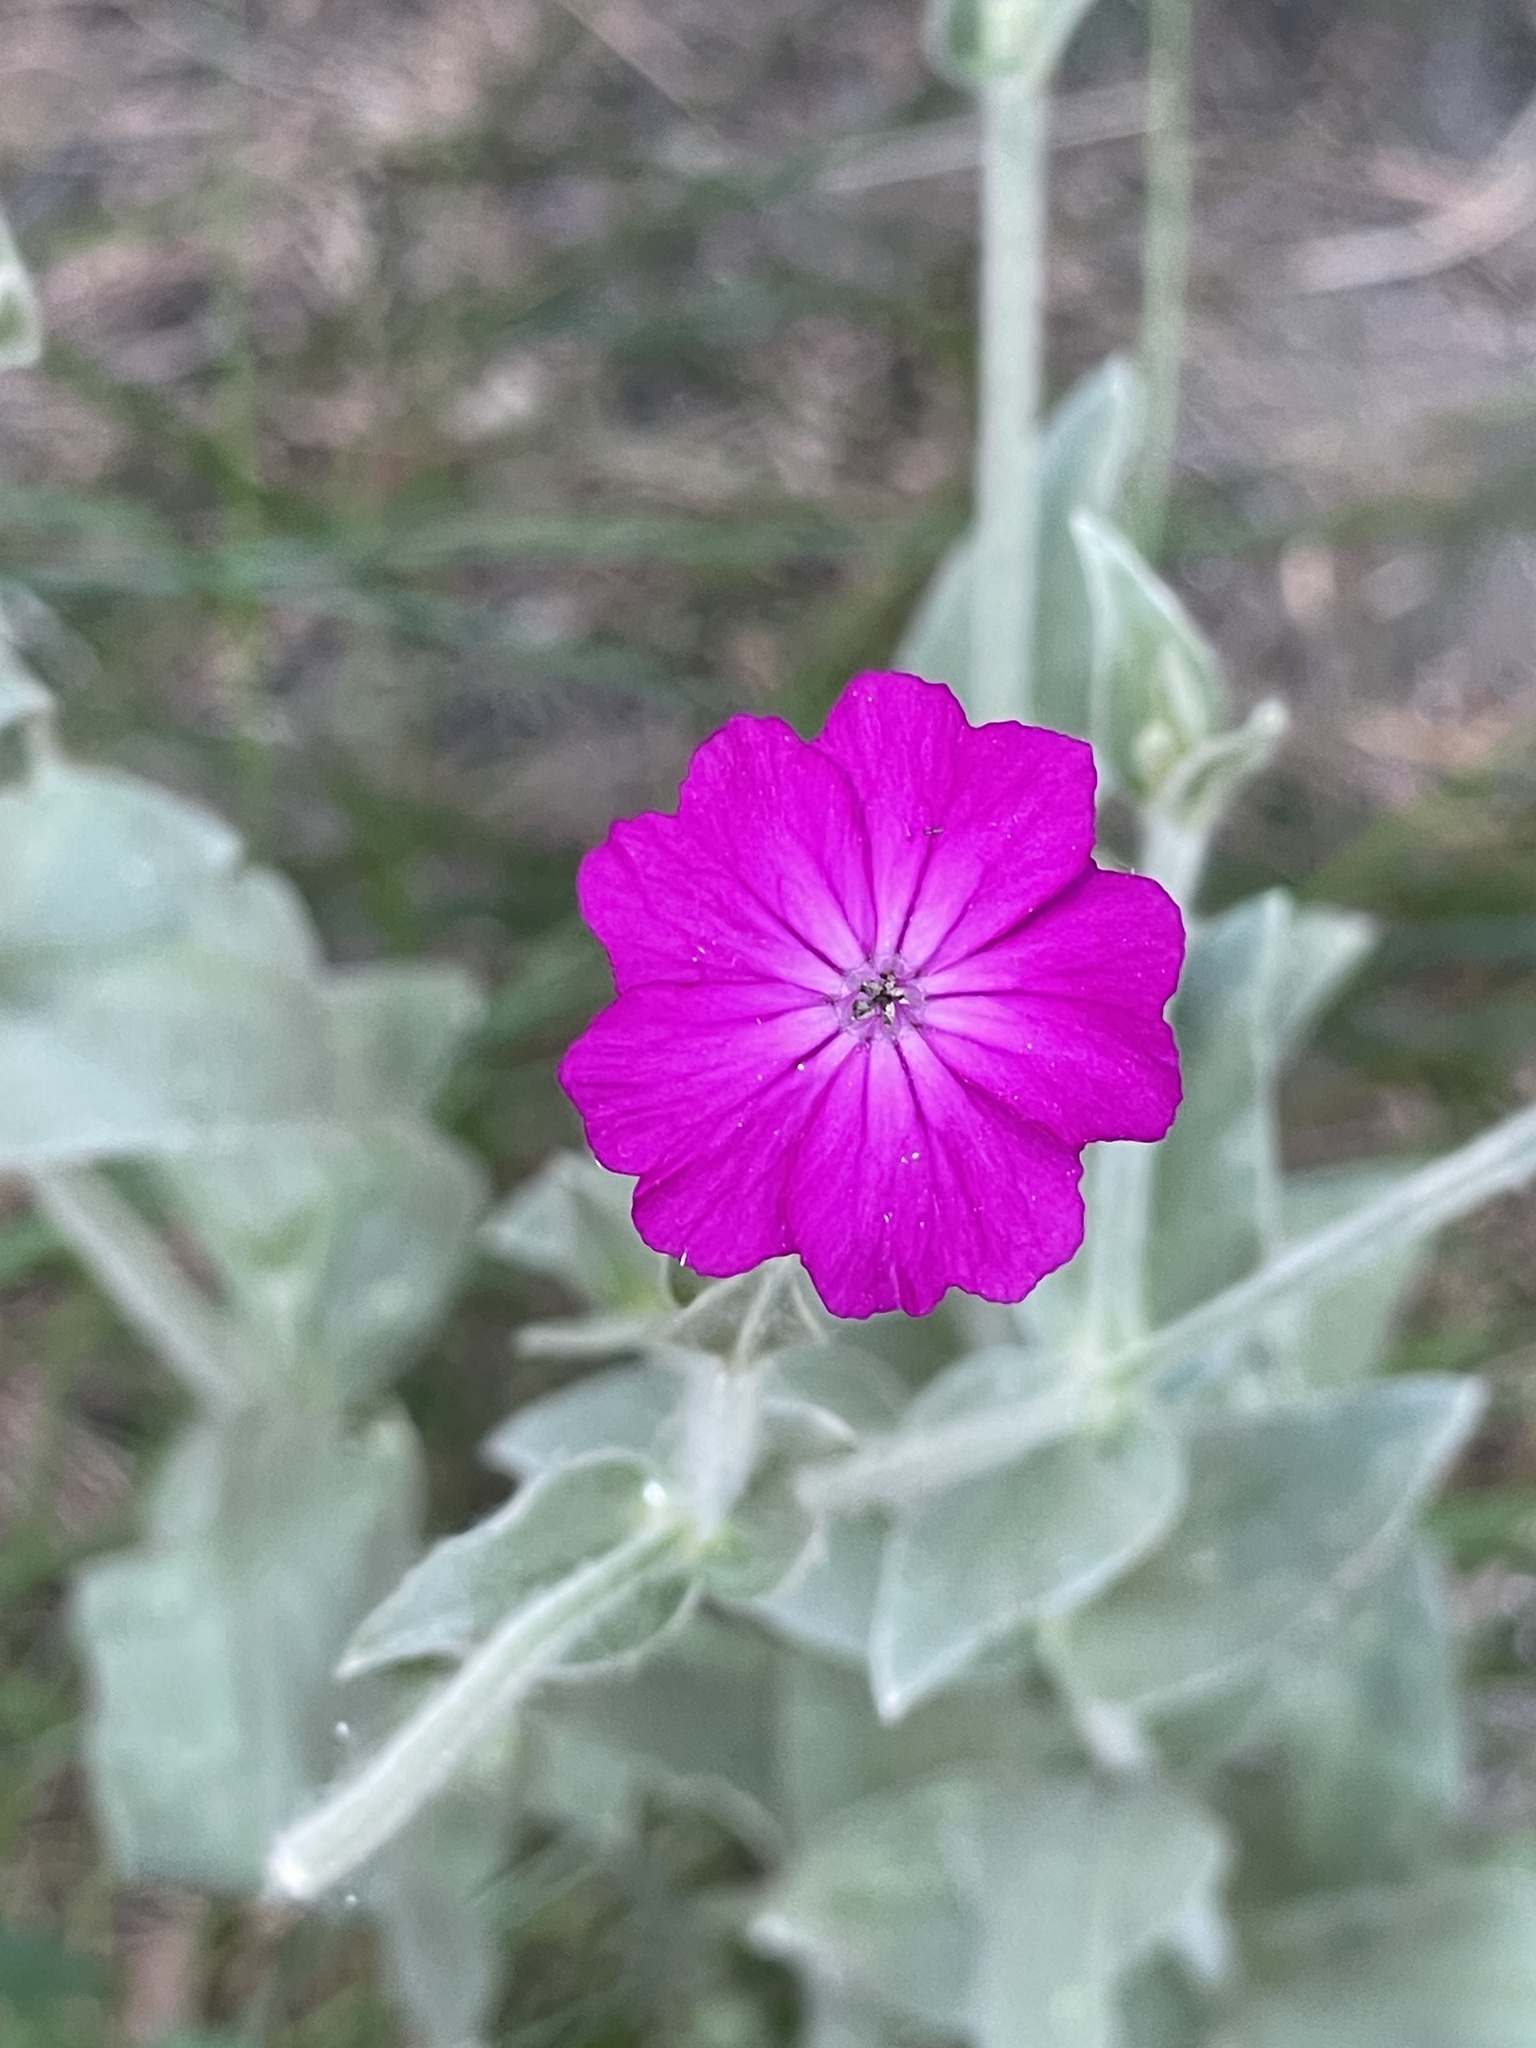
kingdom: Plantae
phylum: Tracheophyta
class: Magnoliopsida
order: Caryophyllales
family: Caryophyllaceae
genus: Silene
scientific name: Silene coronaria
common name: Rose campion
